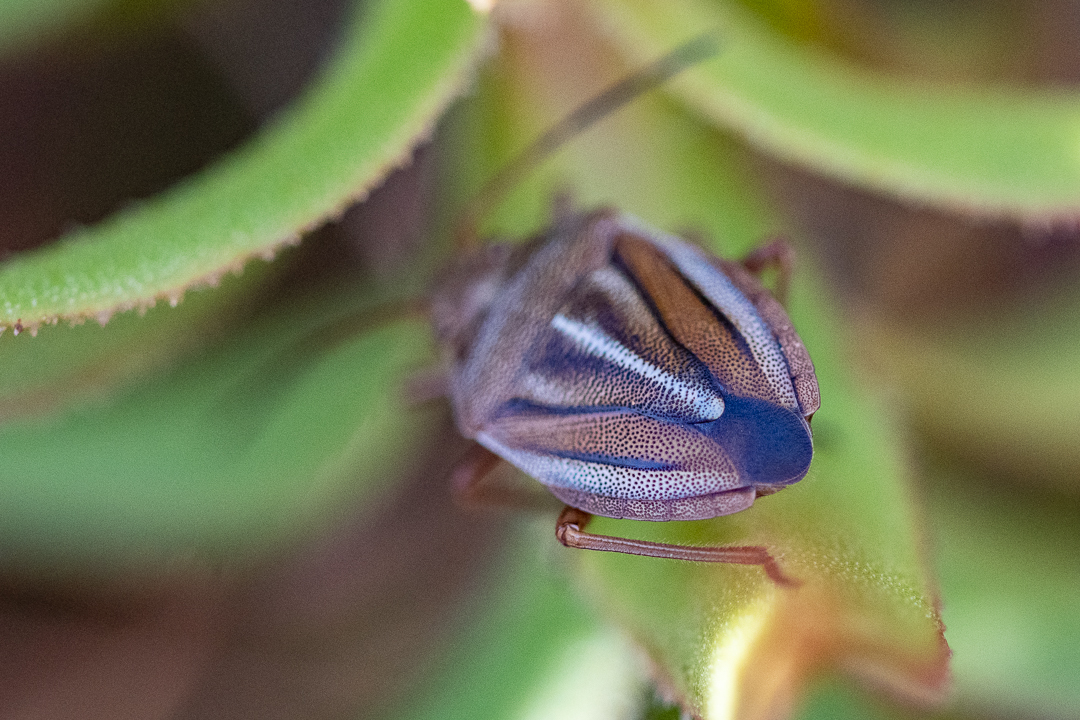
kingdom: Animalia
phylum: Arthropoda
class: Insecta
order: Hemiptera
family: Pentatomidae
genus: Theloris
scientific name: Theloris costata
